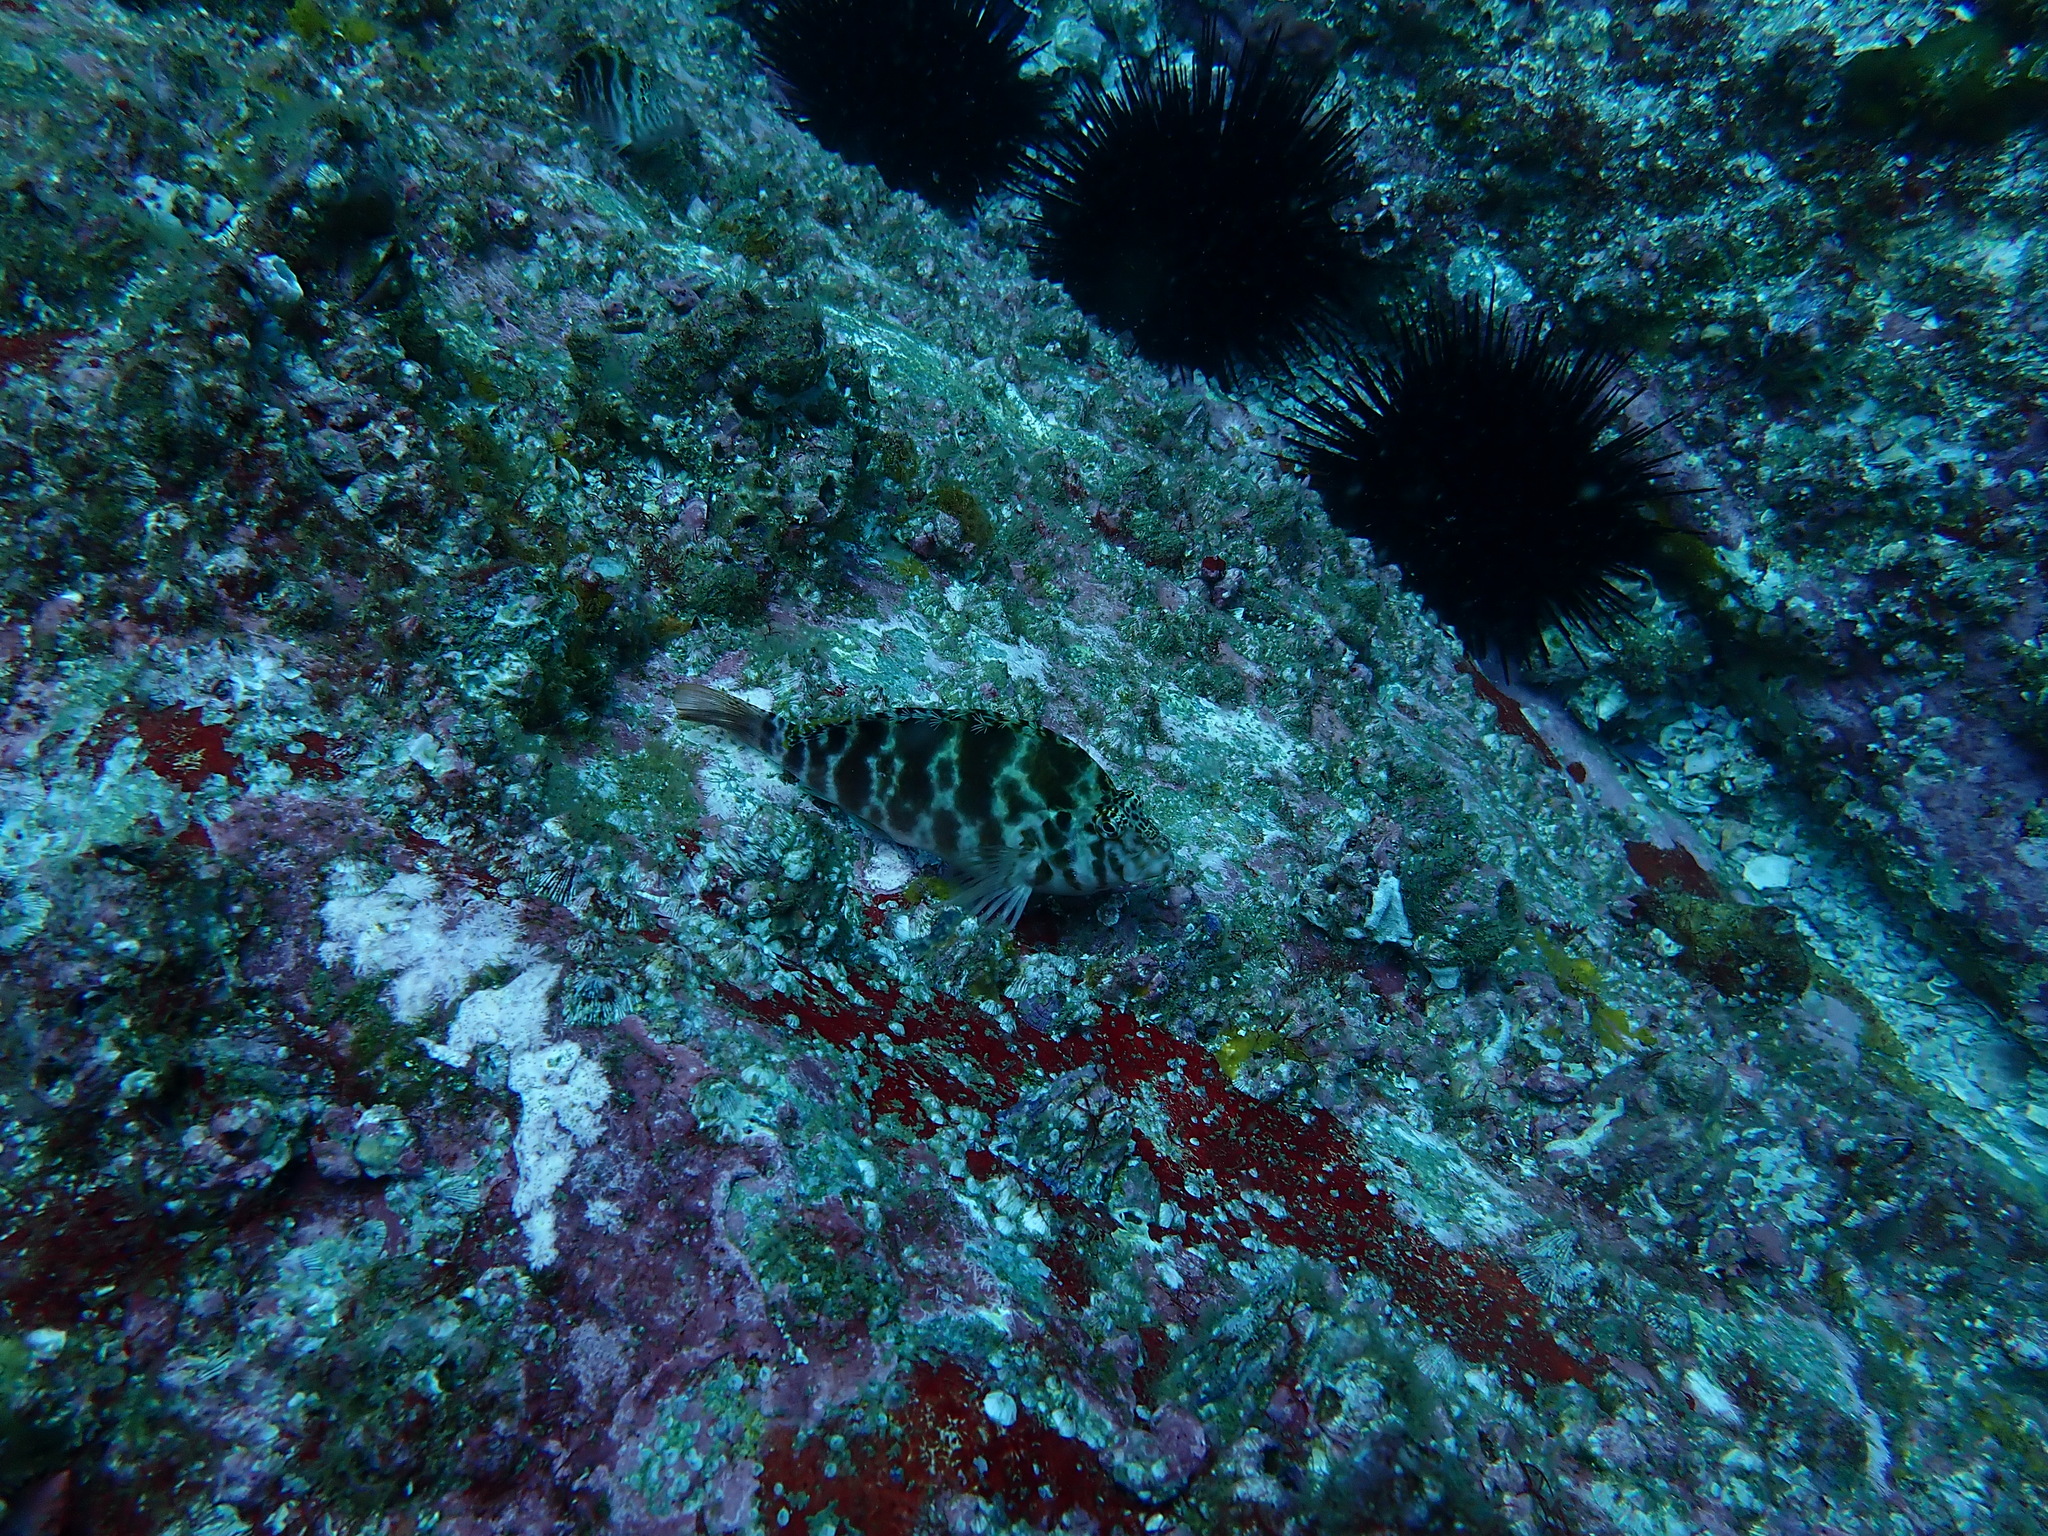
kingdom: Animalia
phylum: Chordata
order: Perciformes
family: Cirrhitidae
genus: Cirrhitichthys
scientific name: Cirrhitichthys aprinus
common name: Blotched hawkfish
